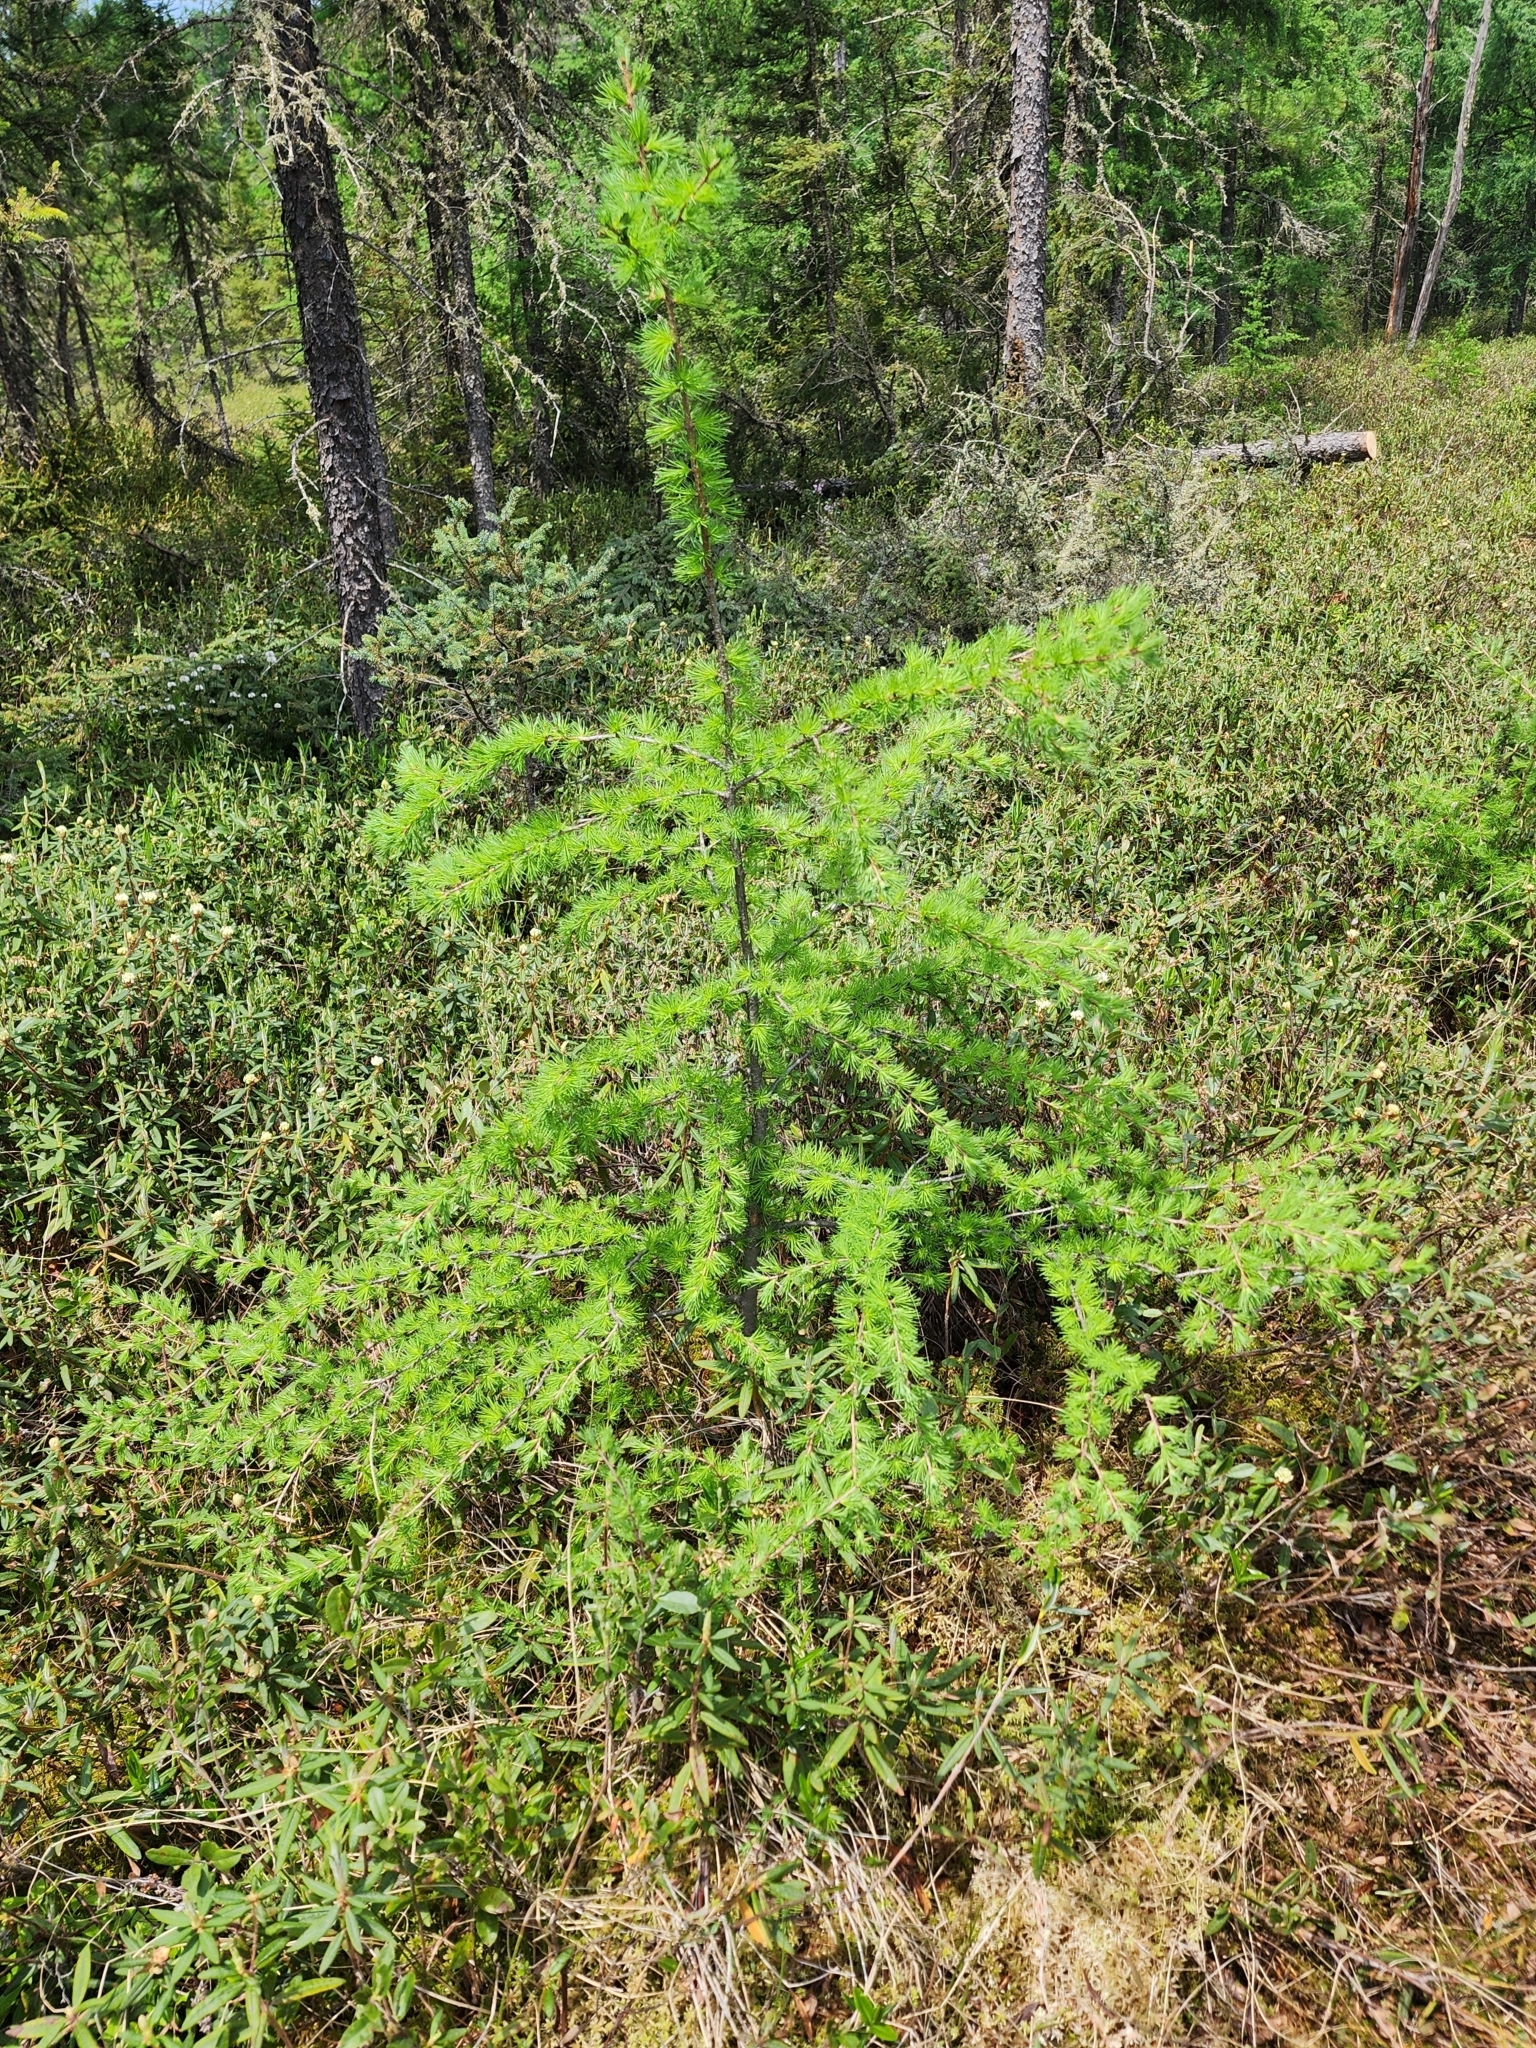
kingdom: Plantae
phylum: Tracheophyta
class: Pinopsida
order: Pinales
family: Pinaceae
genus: Larix
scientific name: Larix laricina
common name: American larch
